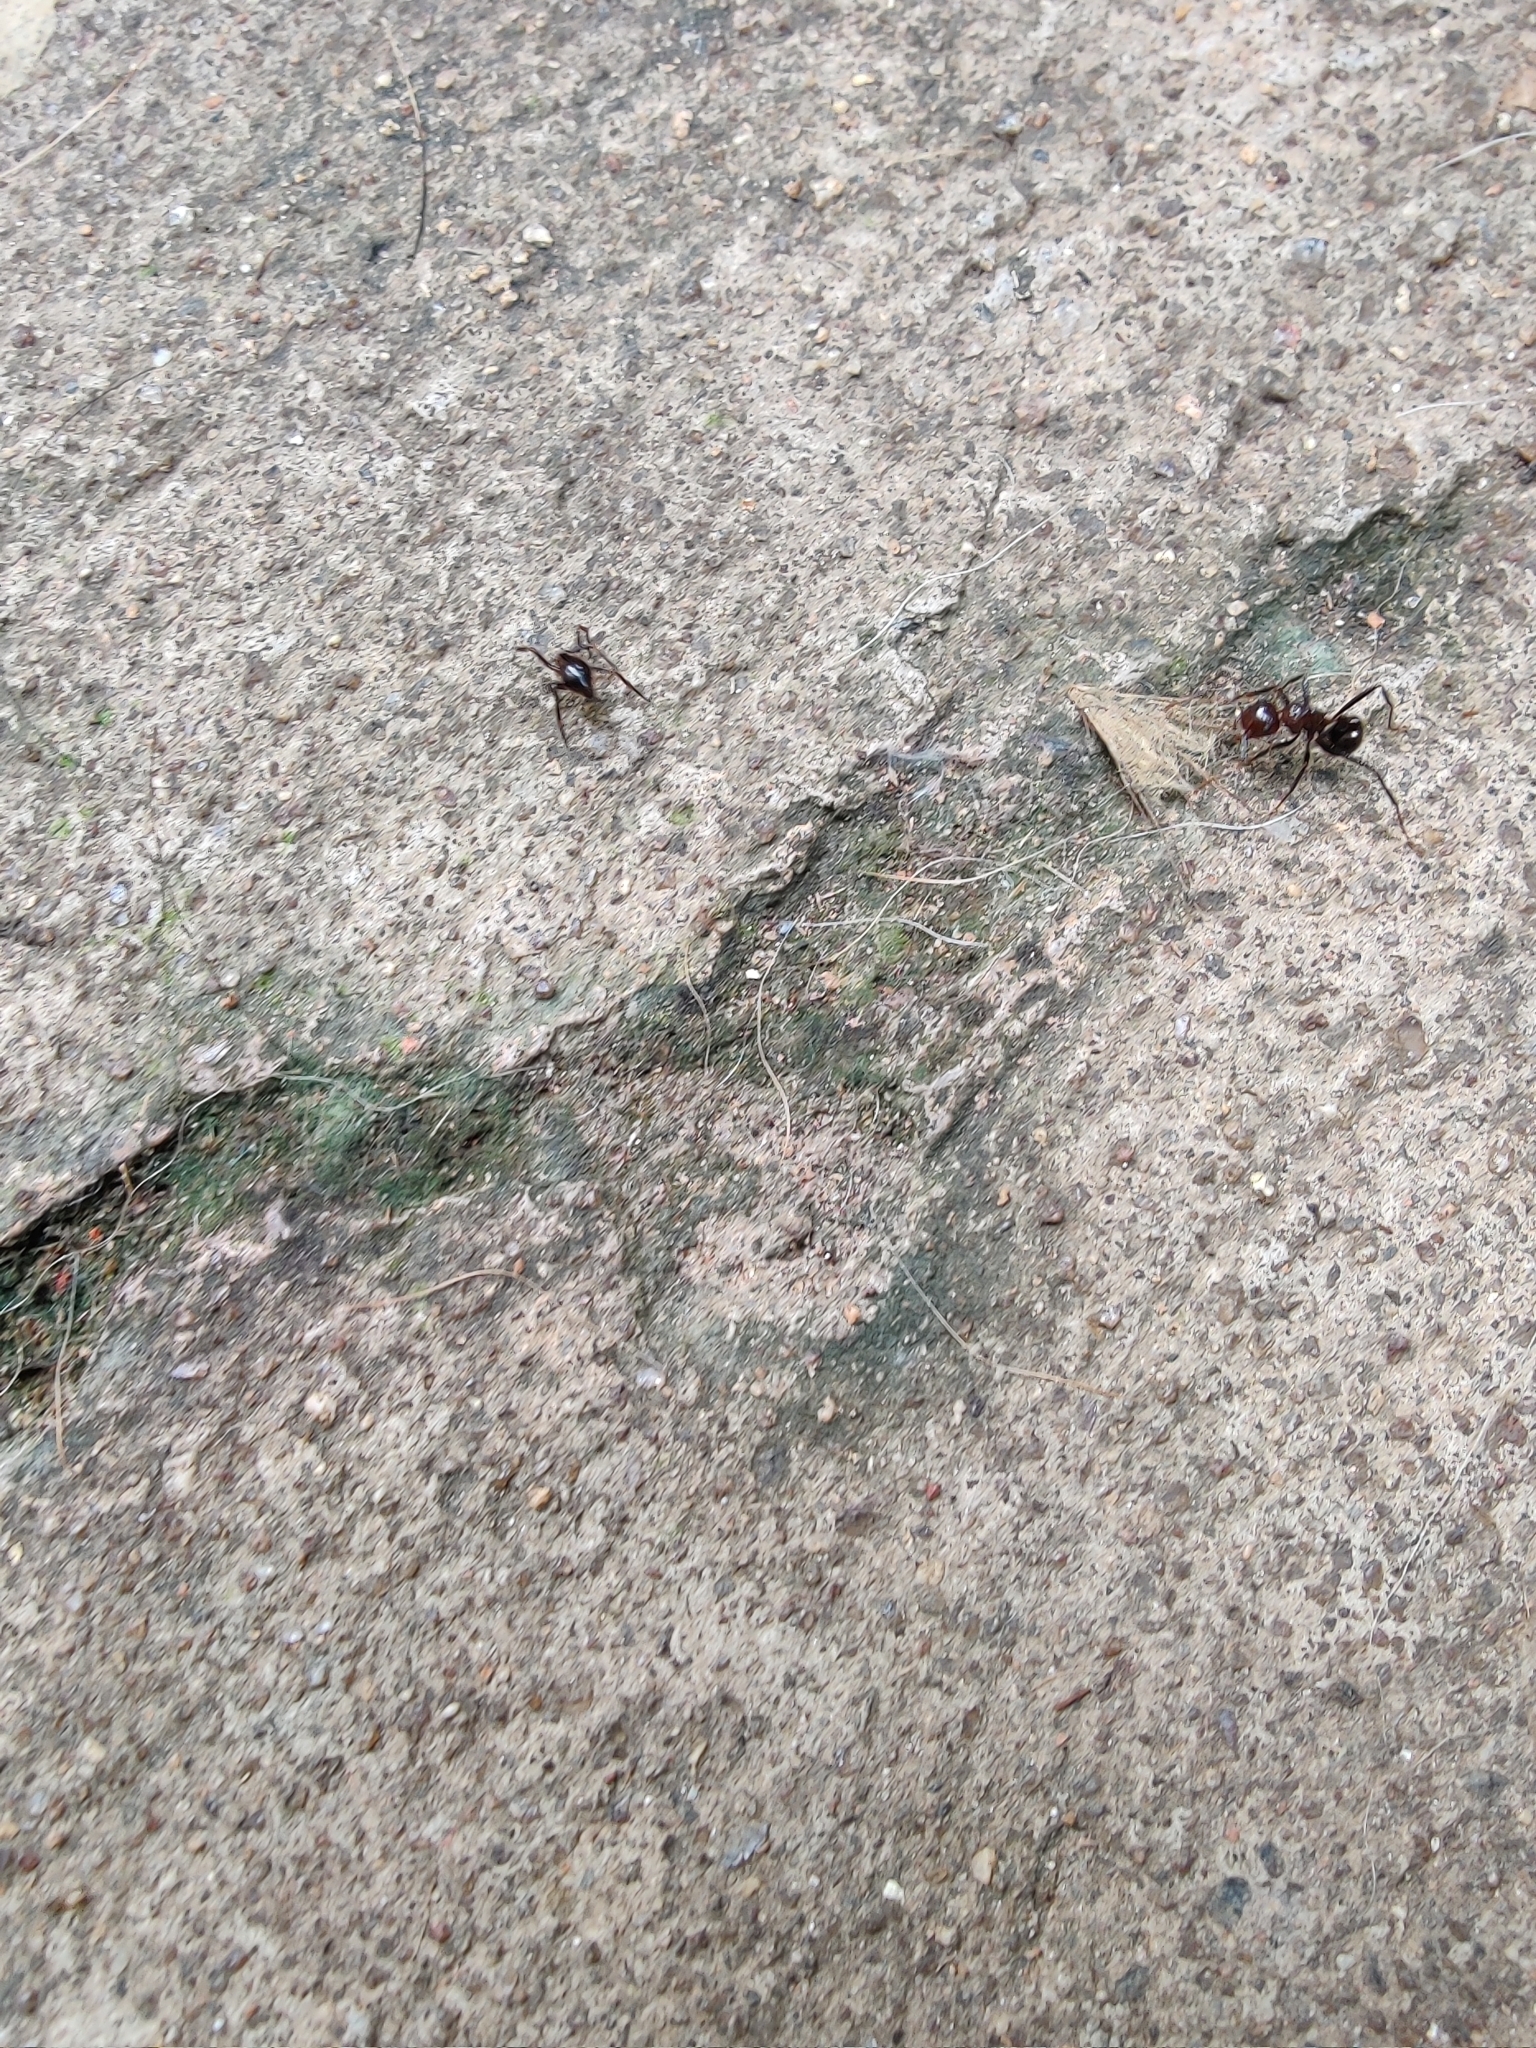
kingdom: Animalia
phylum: Arthropoda
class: Insecta
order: Hymenoptera
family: Formicidae
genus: Myrmicaria
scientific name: Myrmicaria brunnea
